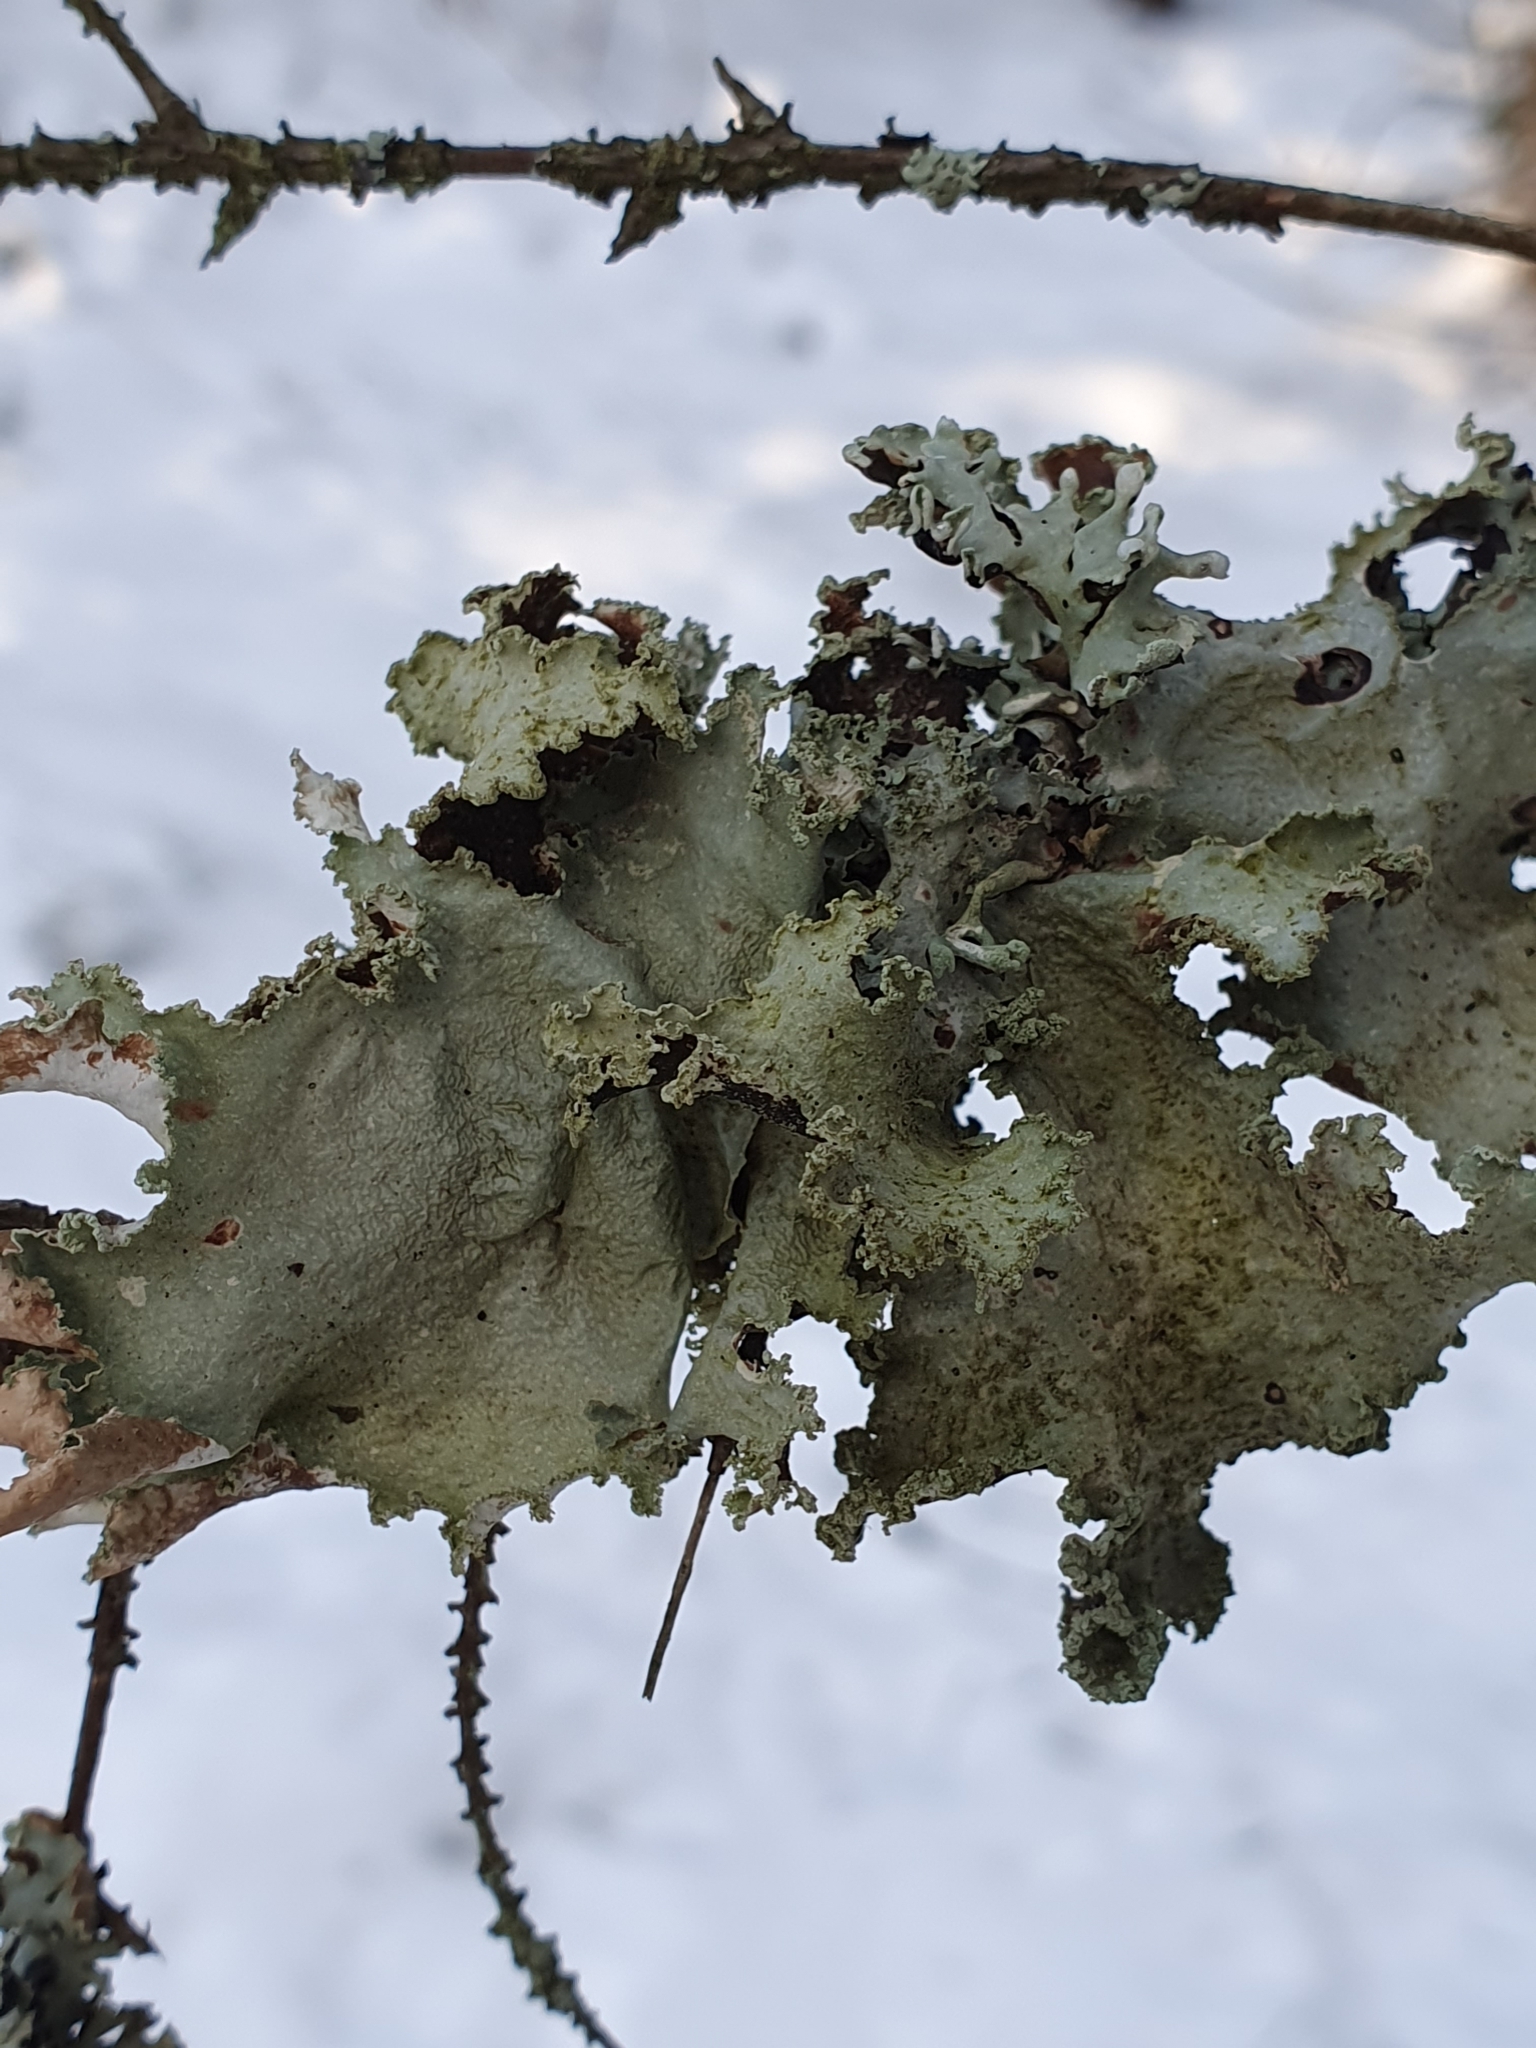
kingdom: Fungi
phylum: Ascomycota
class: Lecanoromycetes
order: Lecanorales
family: Parmeliaceae
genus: Platismatia
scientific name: Platismatia glauca
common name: Varied rag lichen
